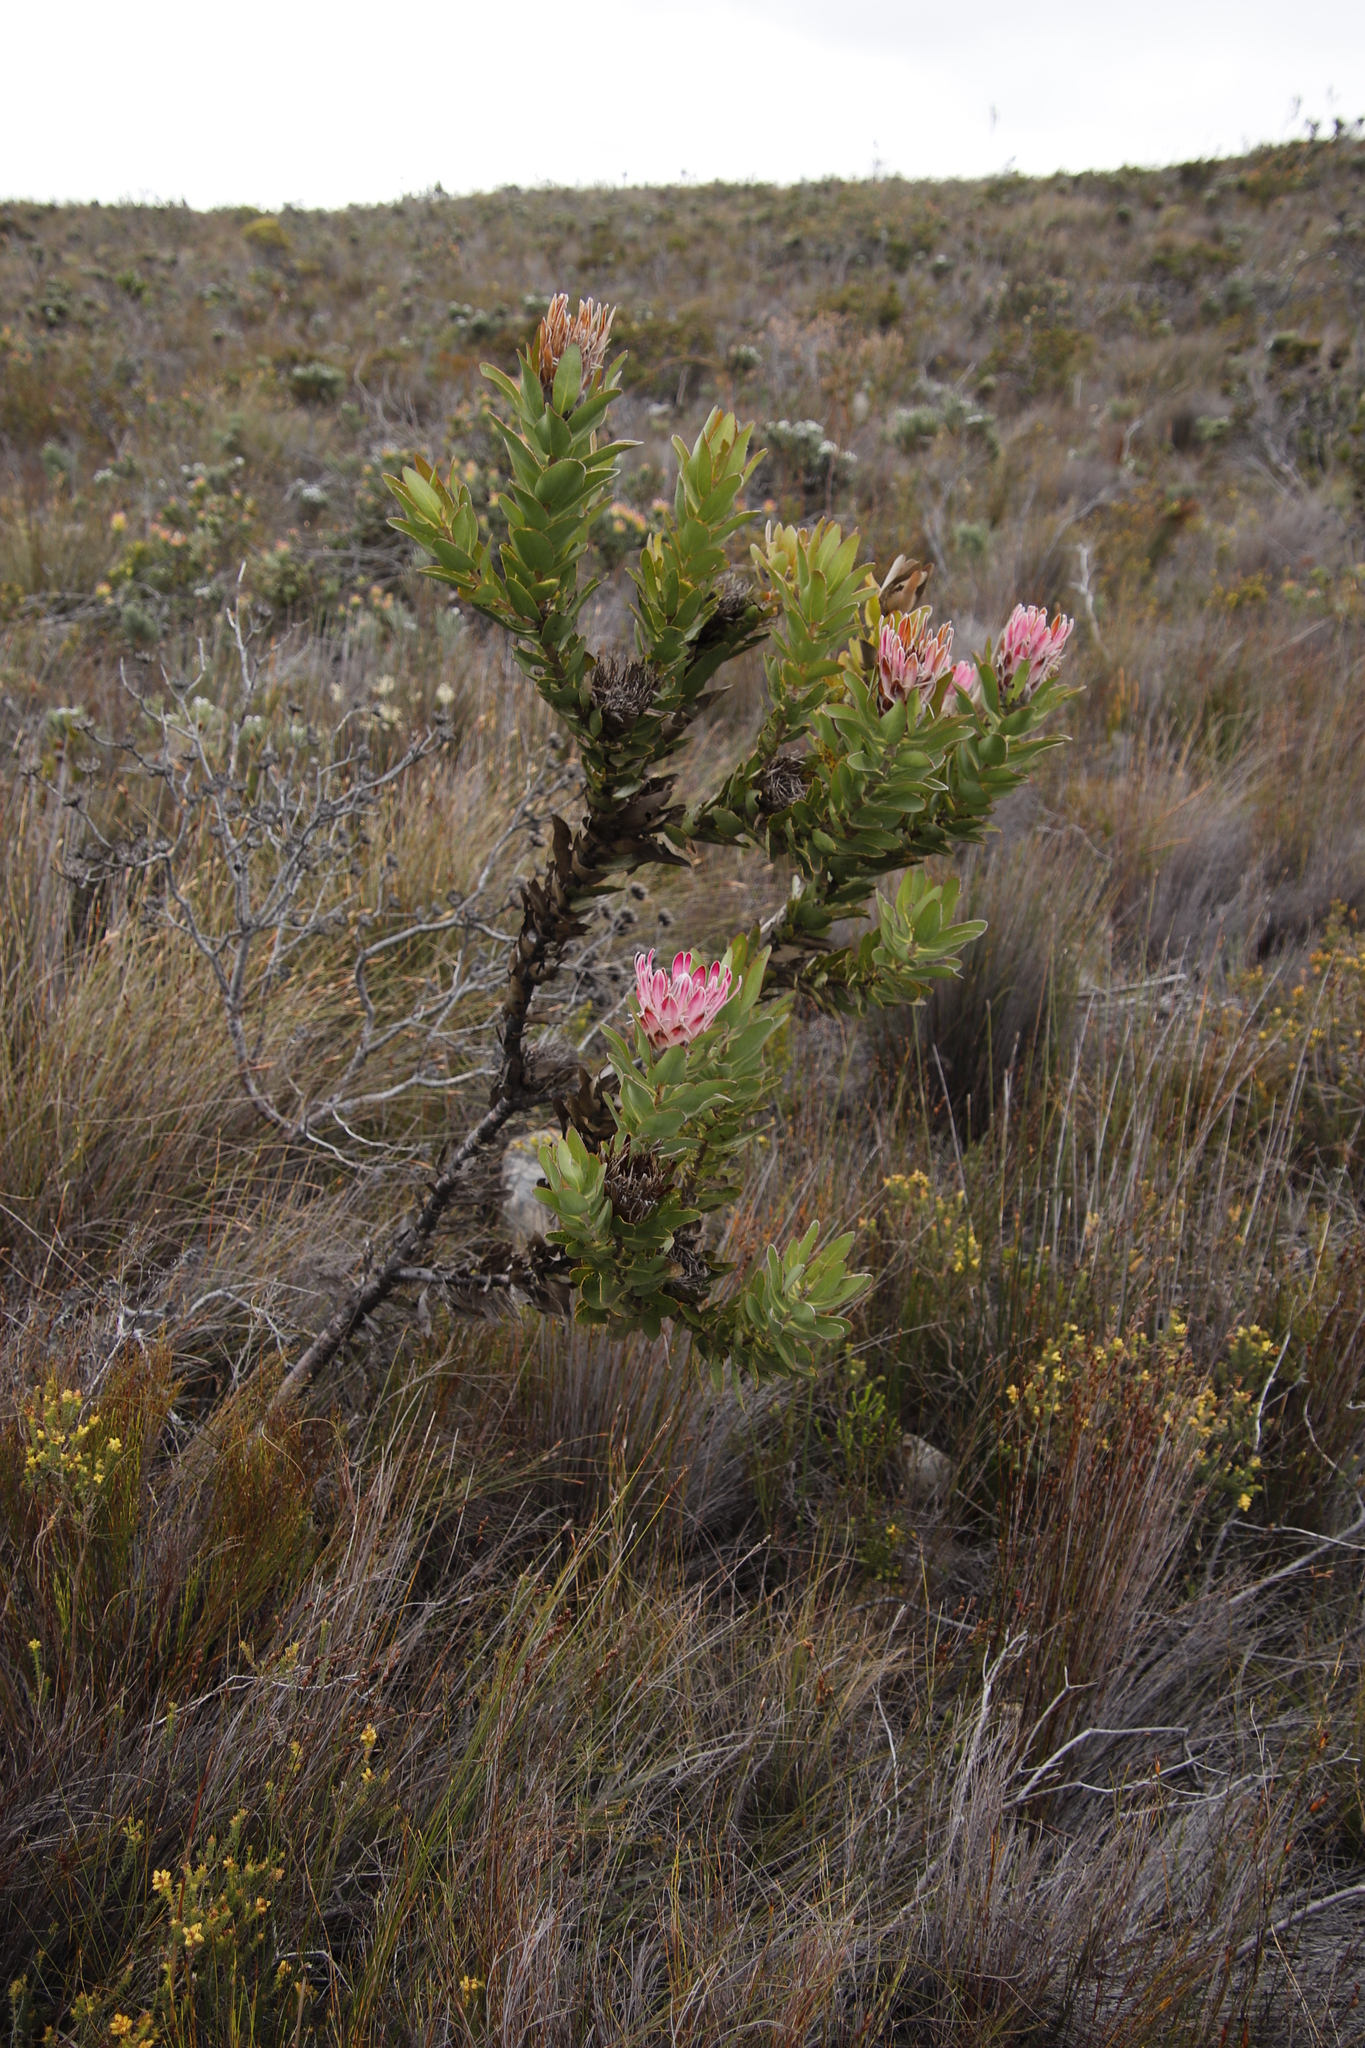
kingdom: Plantae
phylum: Tracheophyta
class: Magnoliopsida
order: Proteales
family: Proteaceae
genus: Protea
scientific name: Protea compacta
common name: Bot river protea
